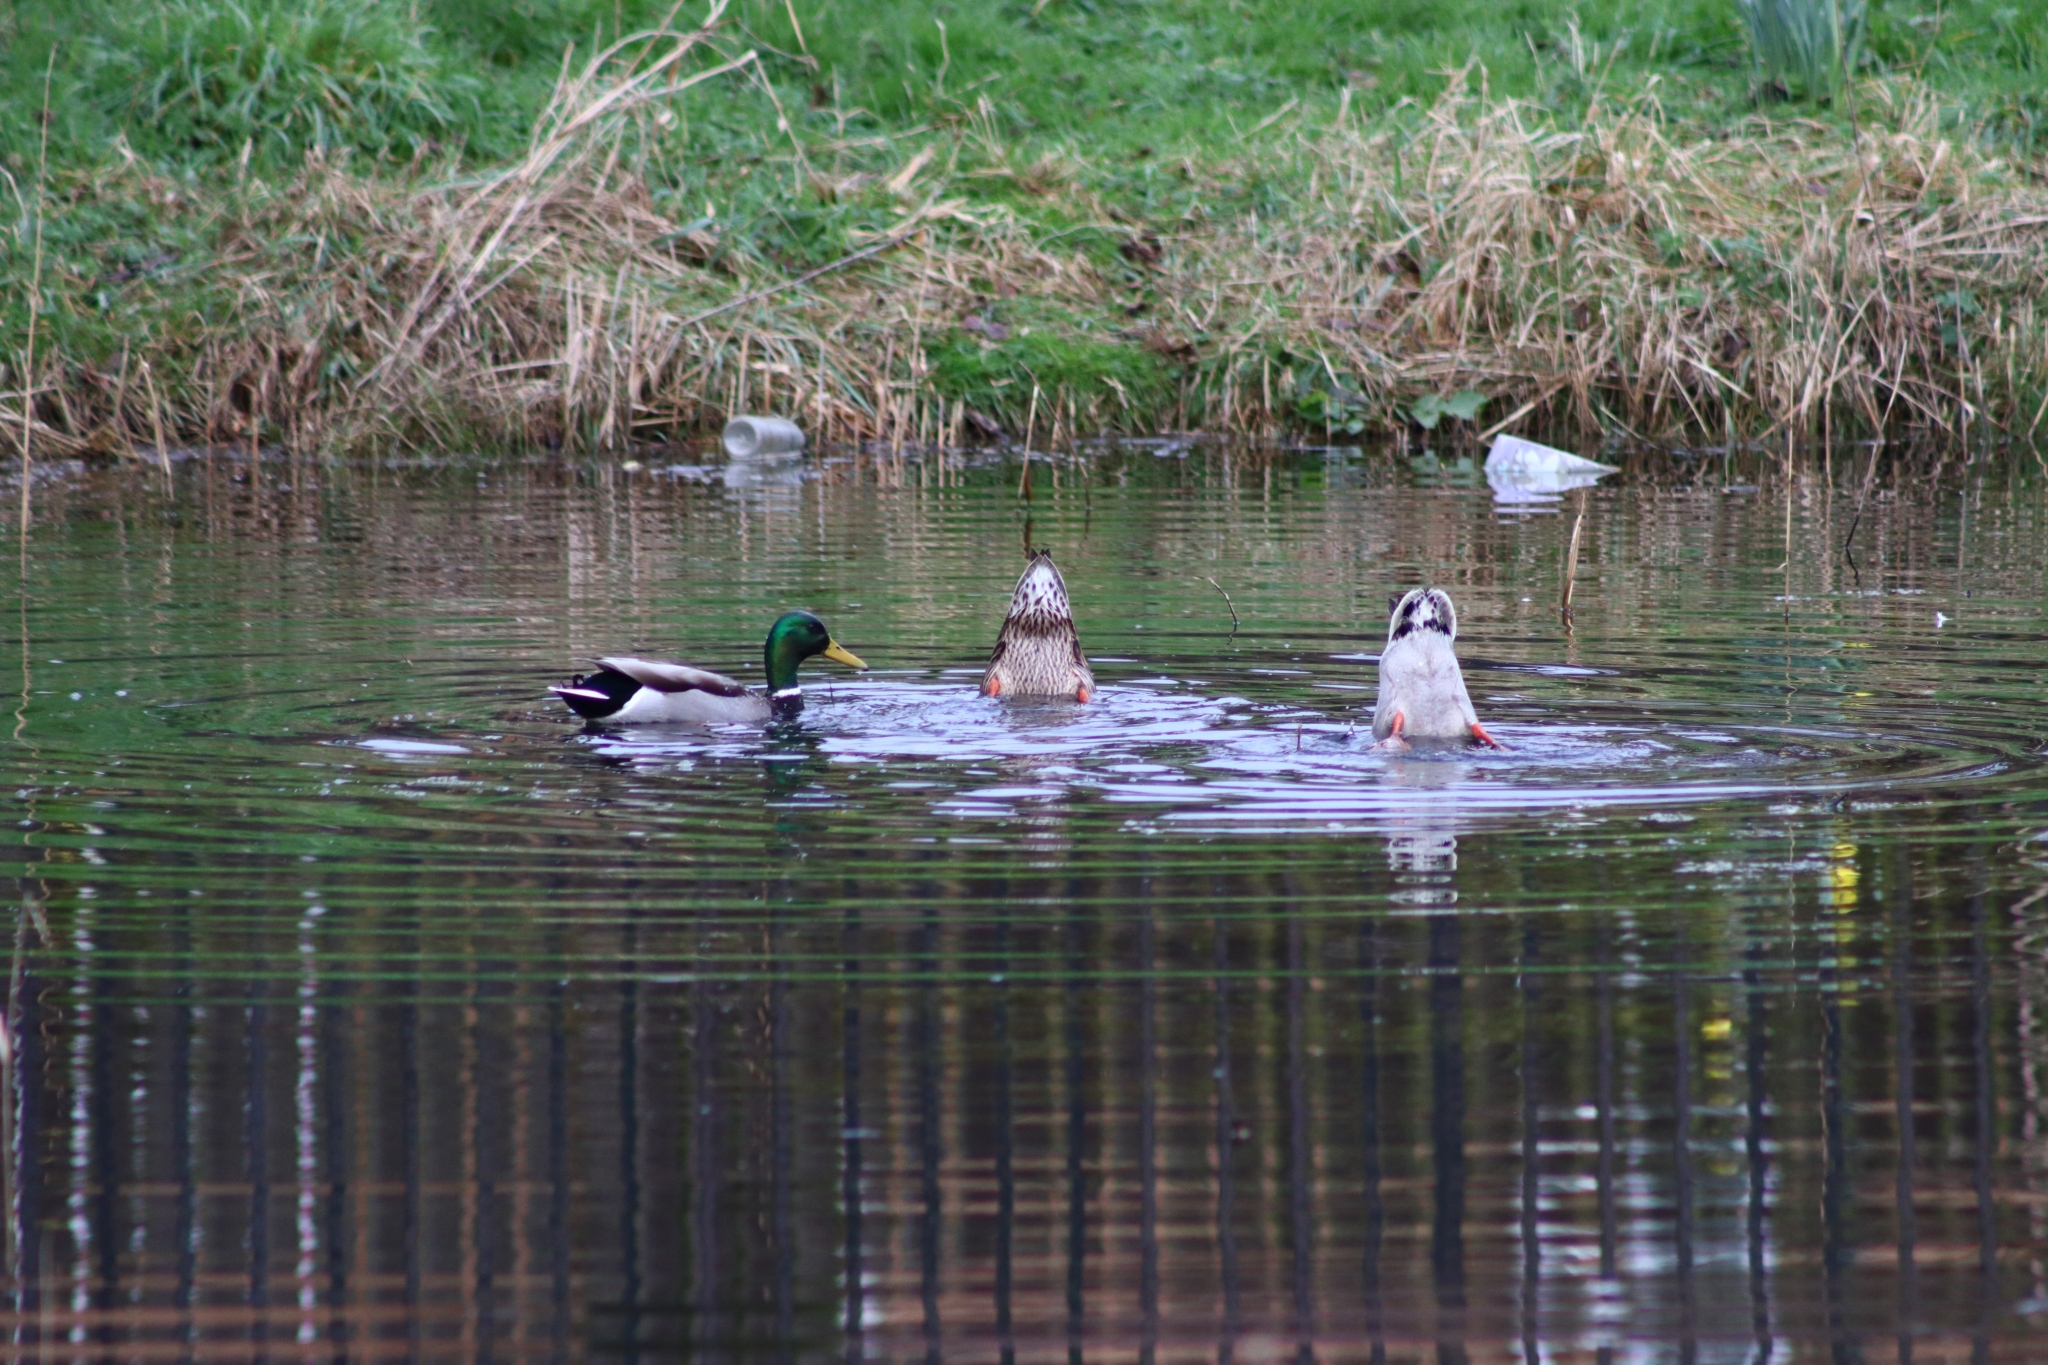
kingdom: Animalia
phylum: Chordata
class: Aves
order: Anseriformes
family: Anatidae
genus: Anas
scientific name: Anas platyrhynchos
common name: Mallard
